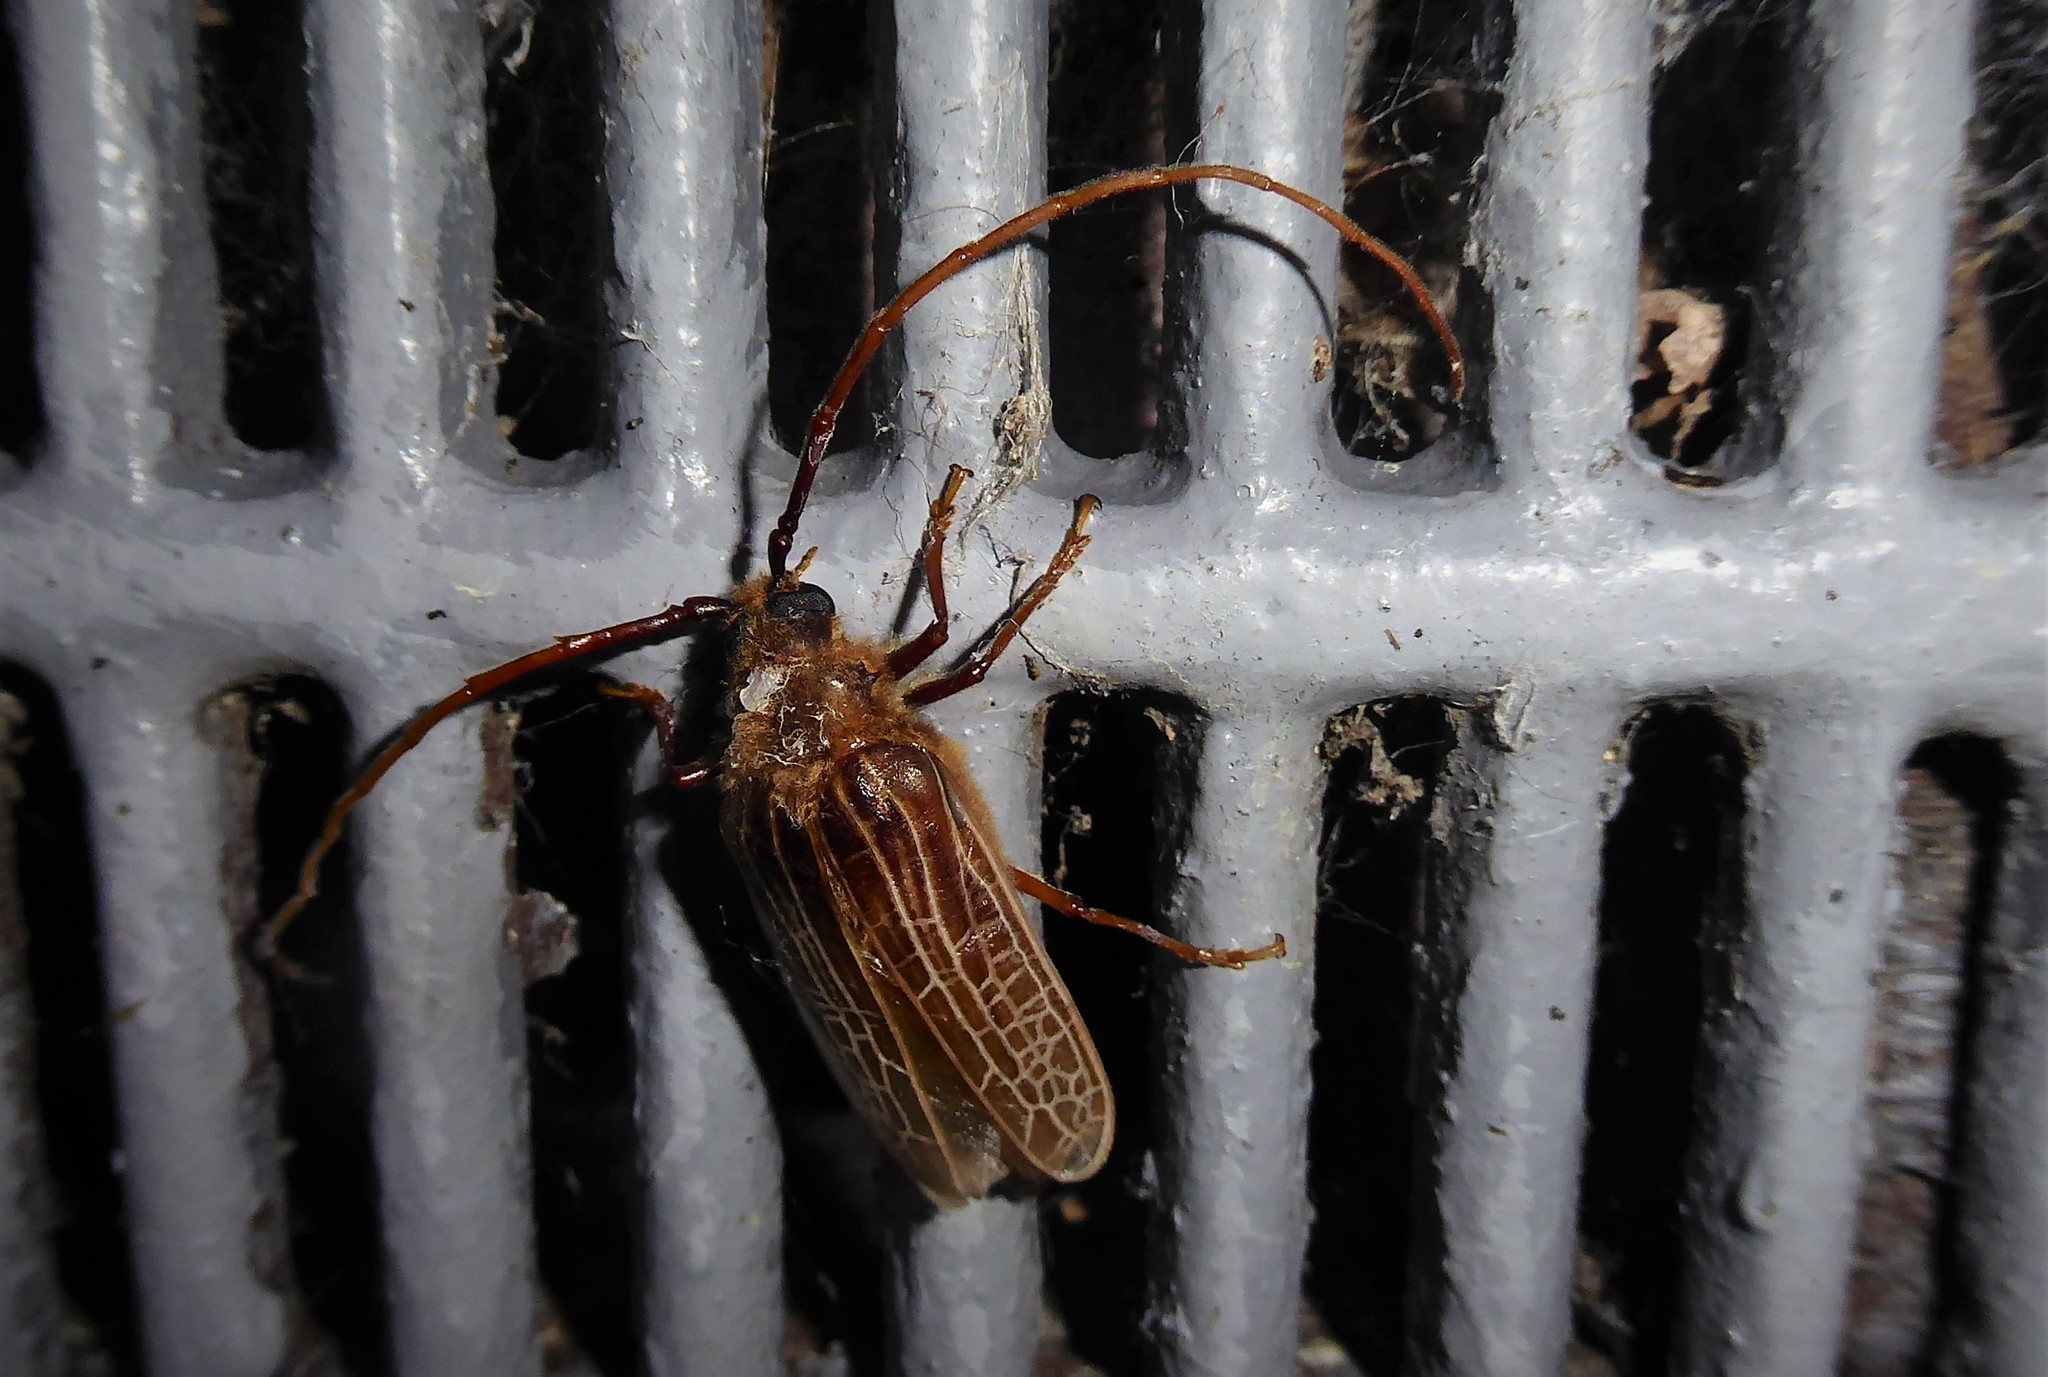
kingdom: Animalia
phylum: Arthropoda
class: Insecta
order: Coleoptera
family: Cerambycidae
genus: Prionoplus
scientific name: Prionoplus reticularis
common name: Huhu beetle
